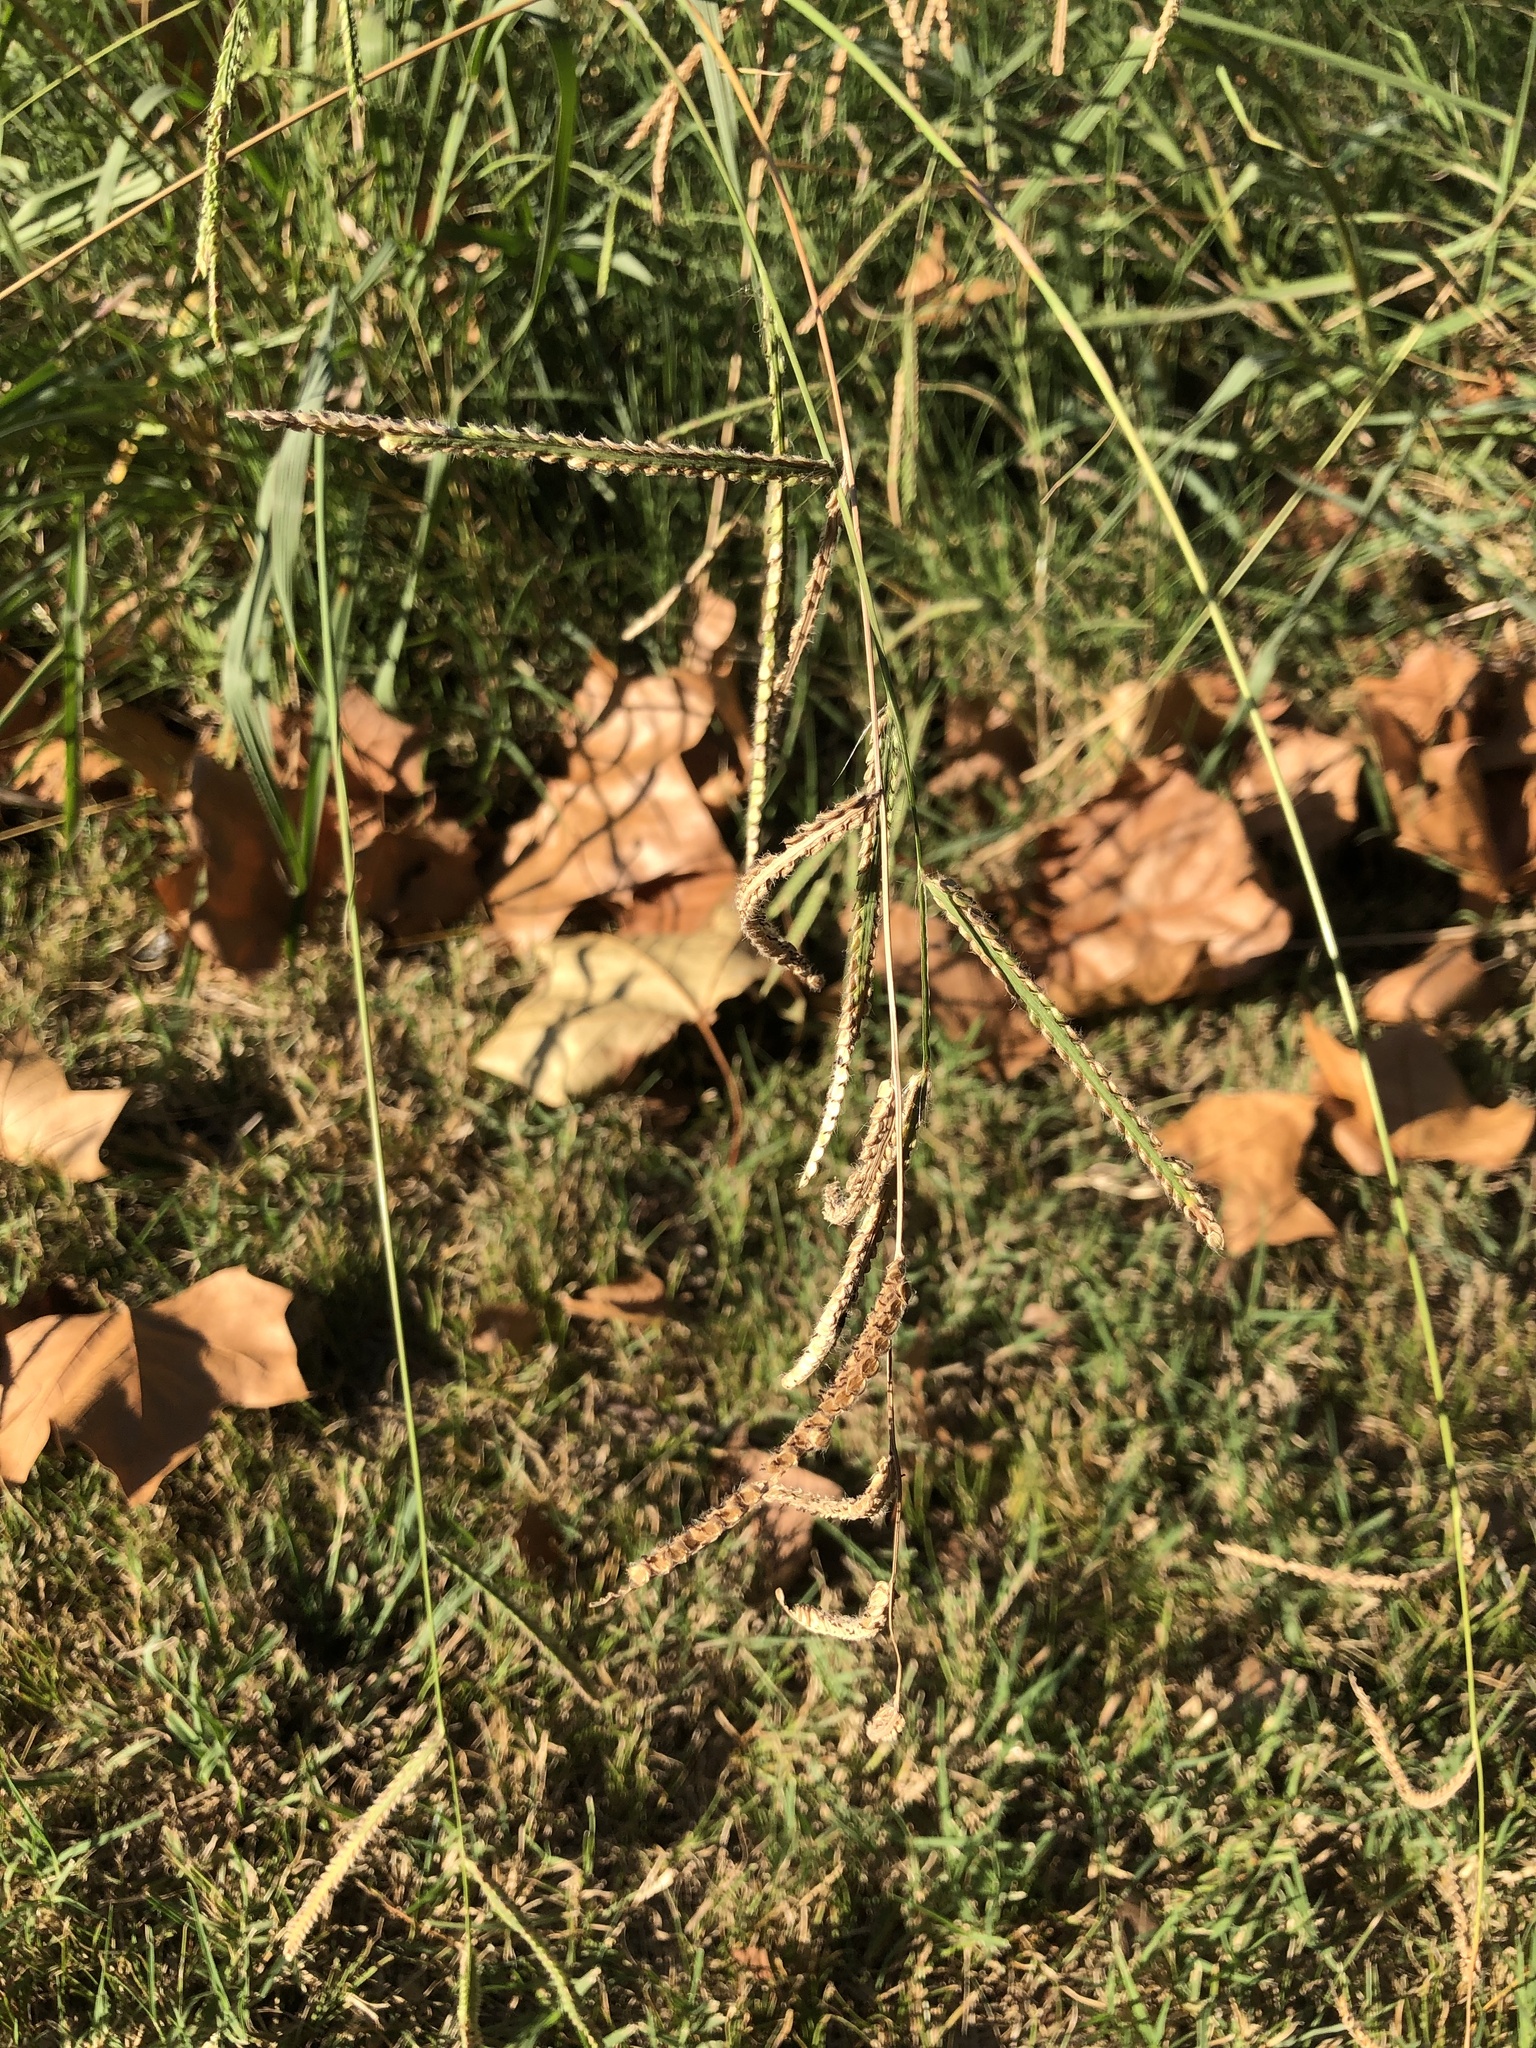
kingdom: Plantae
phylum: Tracheophyta
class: Liliopsida
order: Poales
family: Poaceae
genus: Paspalum
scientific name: Paspalum dilatatum
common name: Dallisgrass
